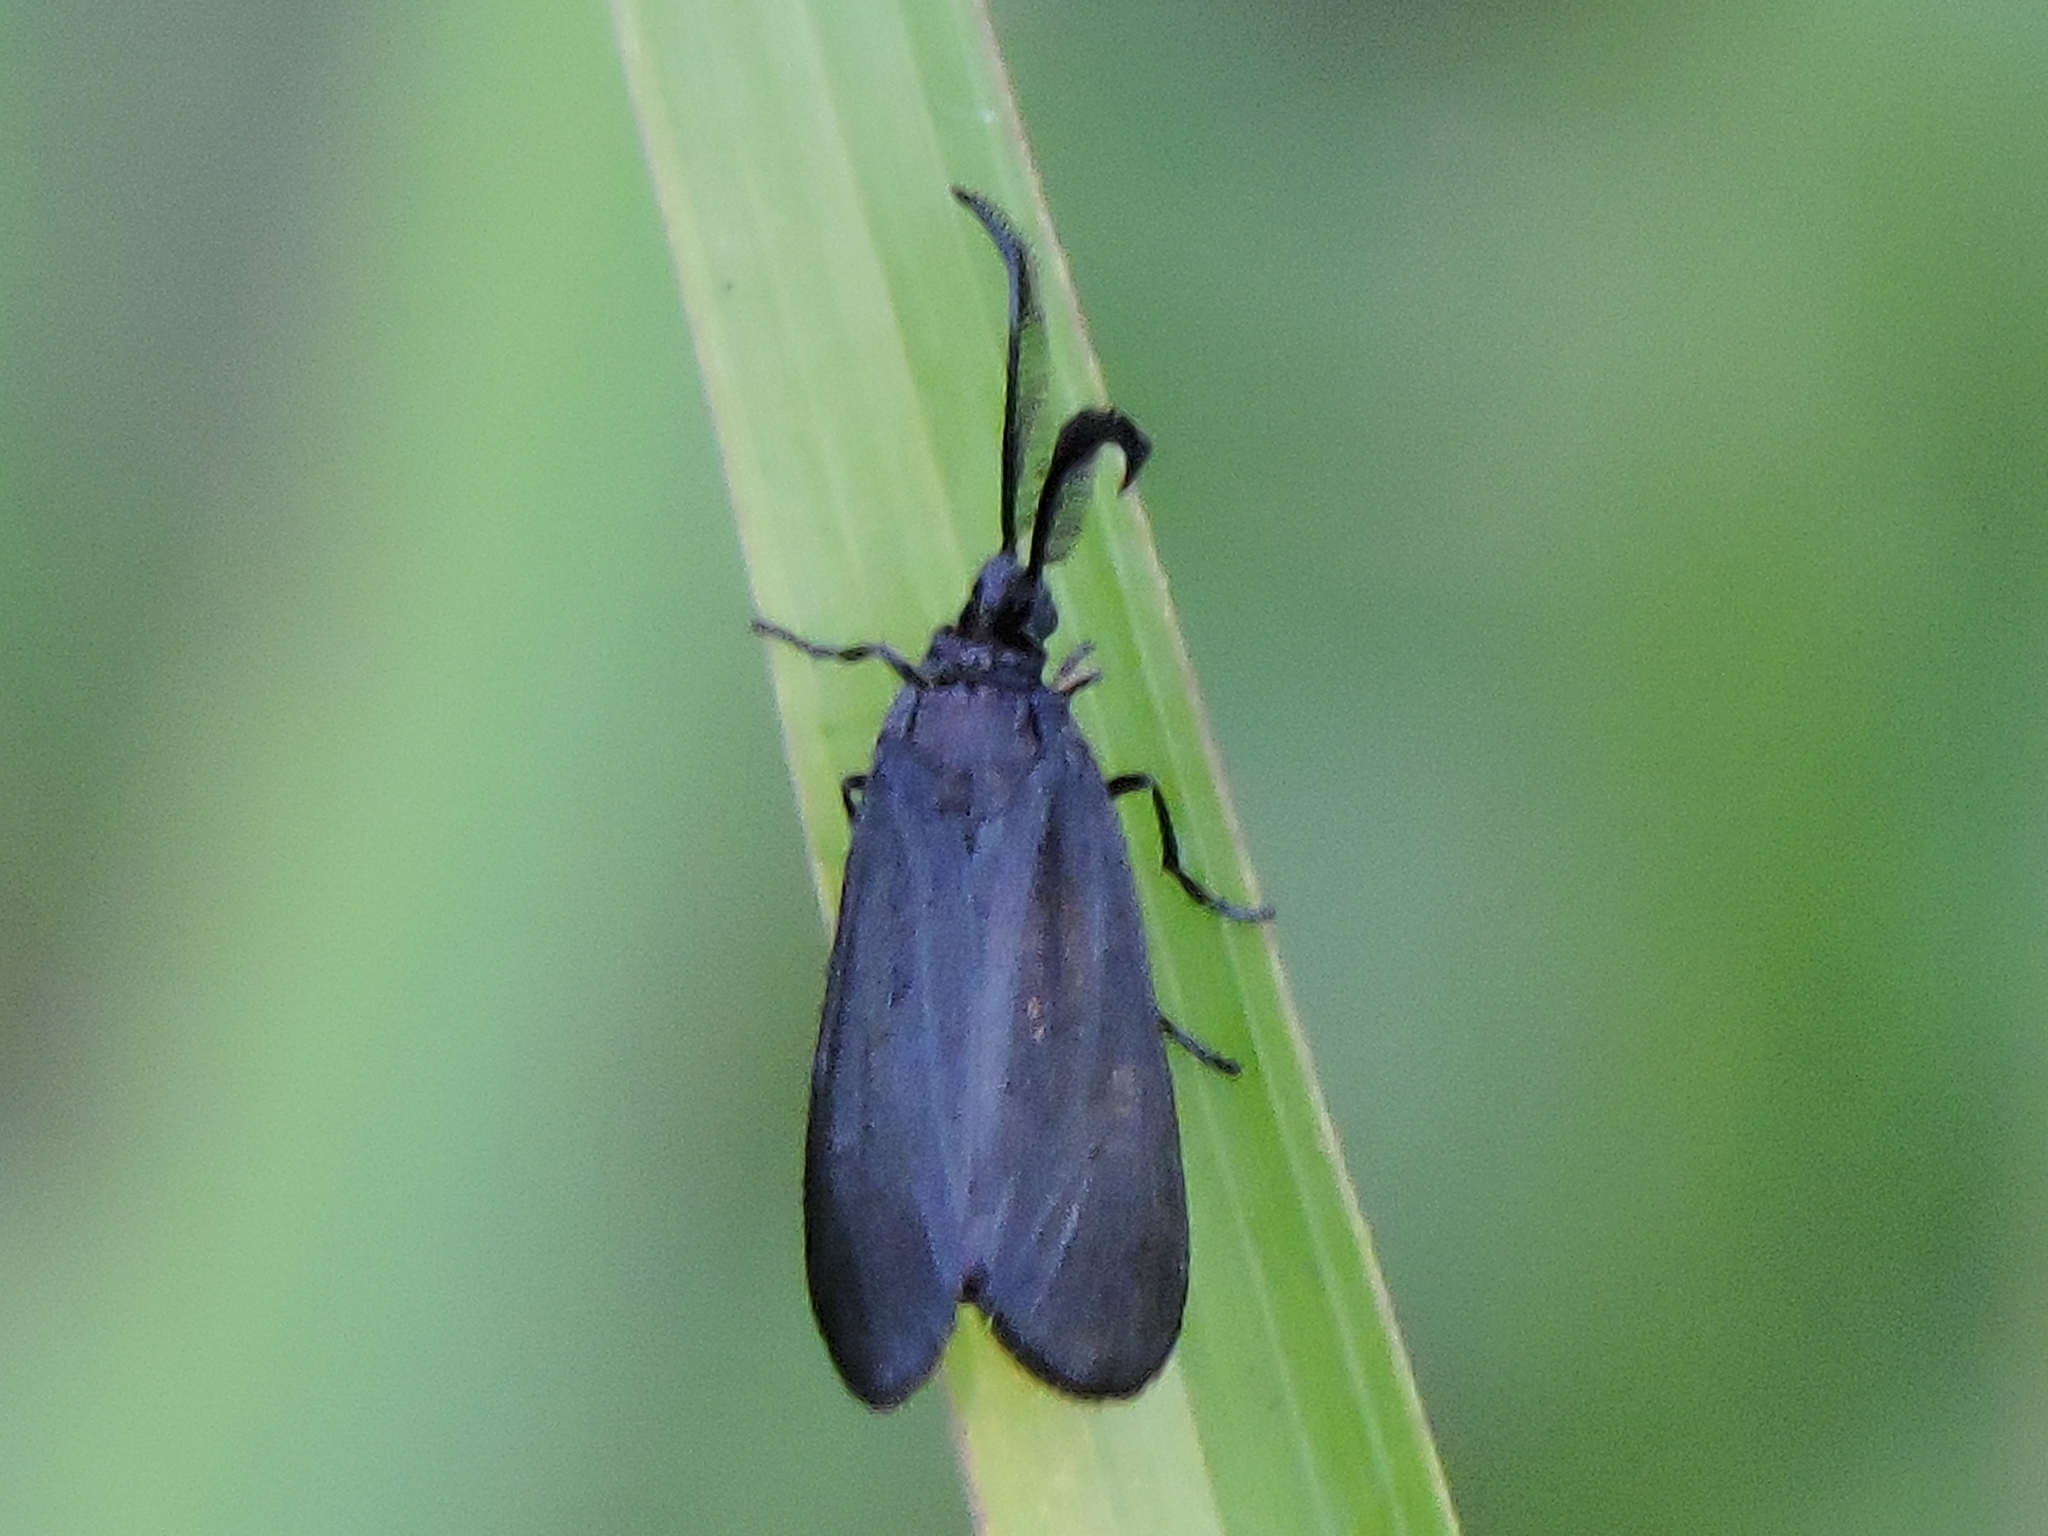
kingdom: Animalia
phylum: Arthropoda
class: Insecta
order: Lepidoptera
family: Zygaenidae
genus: Harrisina
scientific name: Harrisina metallica
